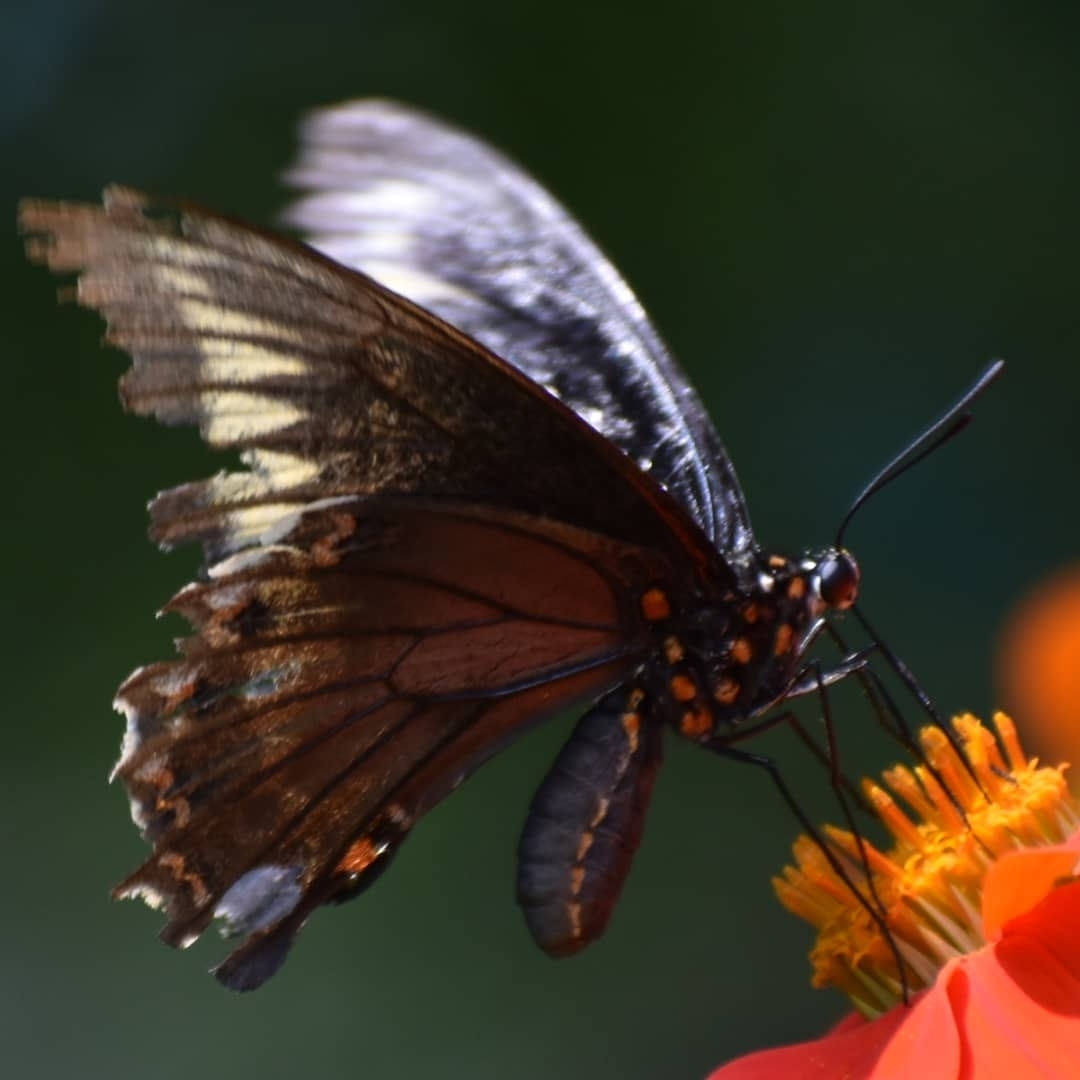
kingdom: Animalia
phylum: Arthropoda
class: Insecta
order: Lepidoptera
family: Papilionidae
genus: Battus
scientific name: Battus polydamas
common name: Polydamas swallowtail
